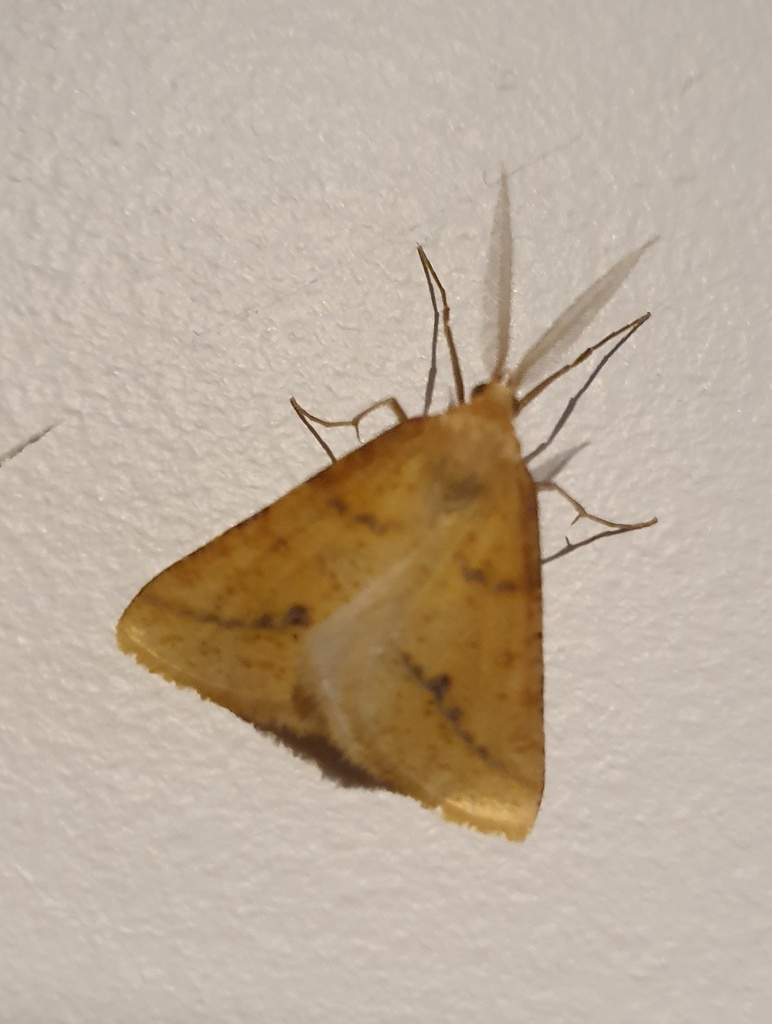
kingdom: Animalia
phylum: Arthropoda
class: Insecta
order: Lepidoptera
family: Geometridae
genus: Aspitates
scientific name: Aspitates ochrearia
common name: Yellow belle
